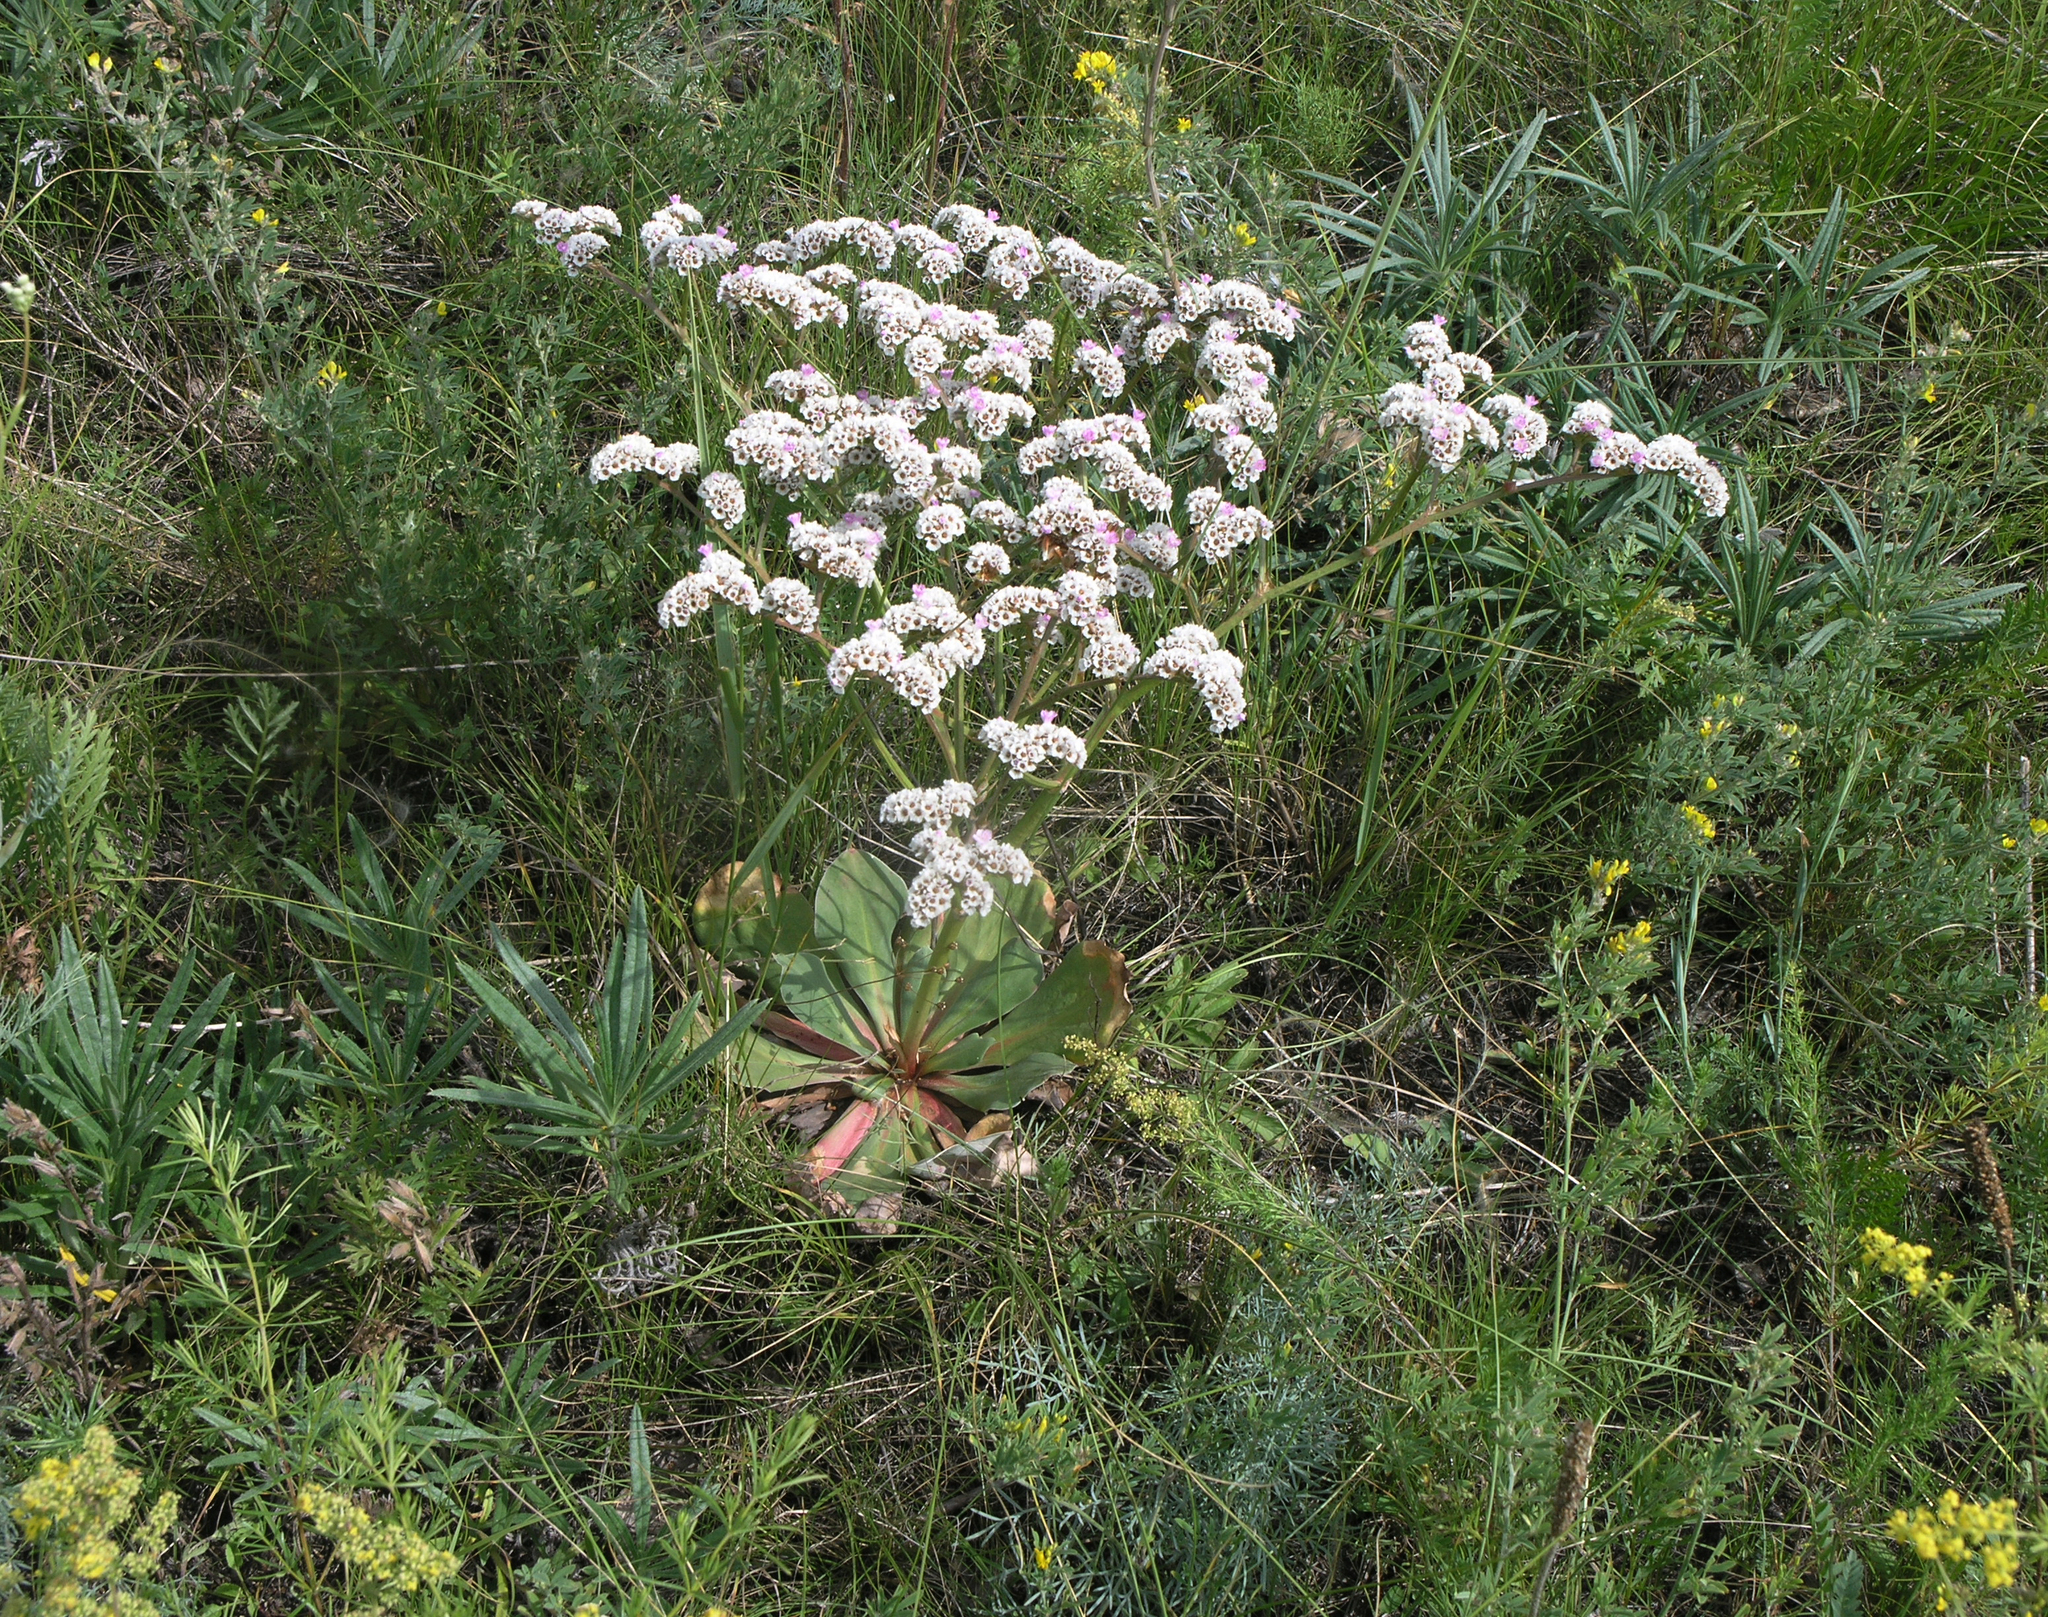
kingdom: Plantae
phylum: Tracheophyta
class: Magnoliopsida
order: Caryophyllales
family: Plumbaginaceae
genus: Goniolimon
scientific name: Goniolimon speciosum
